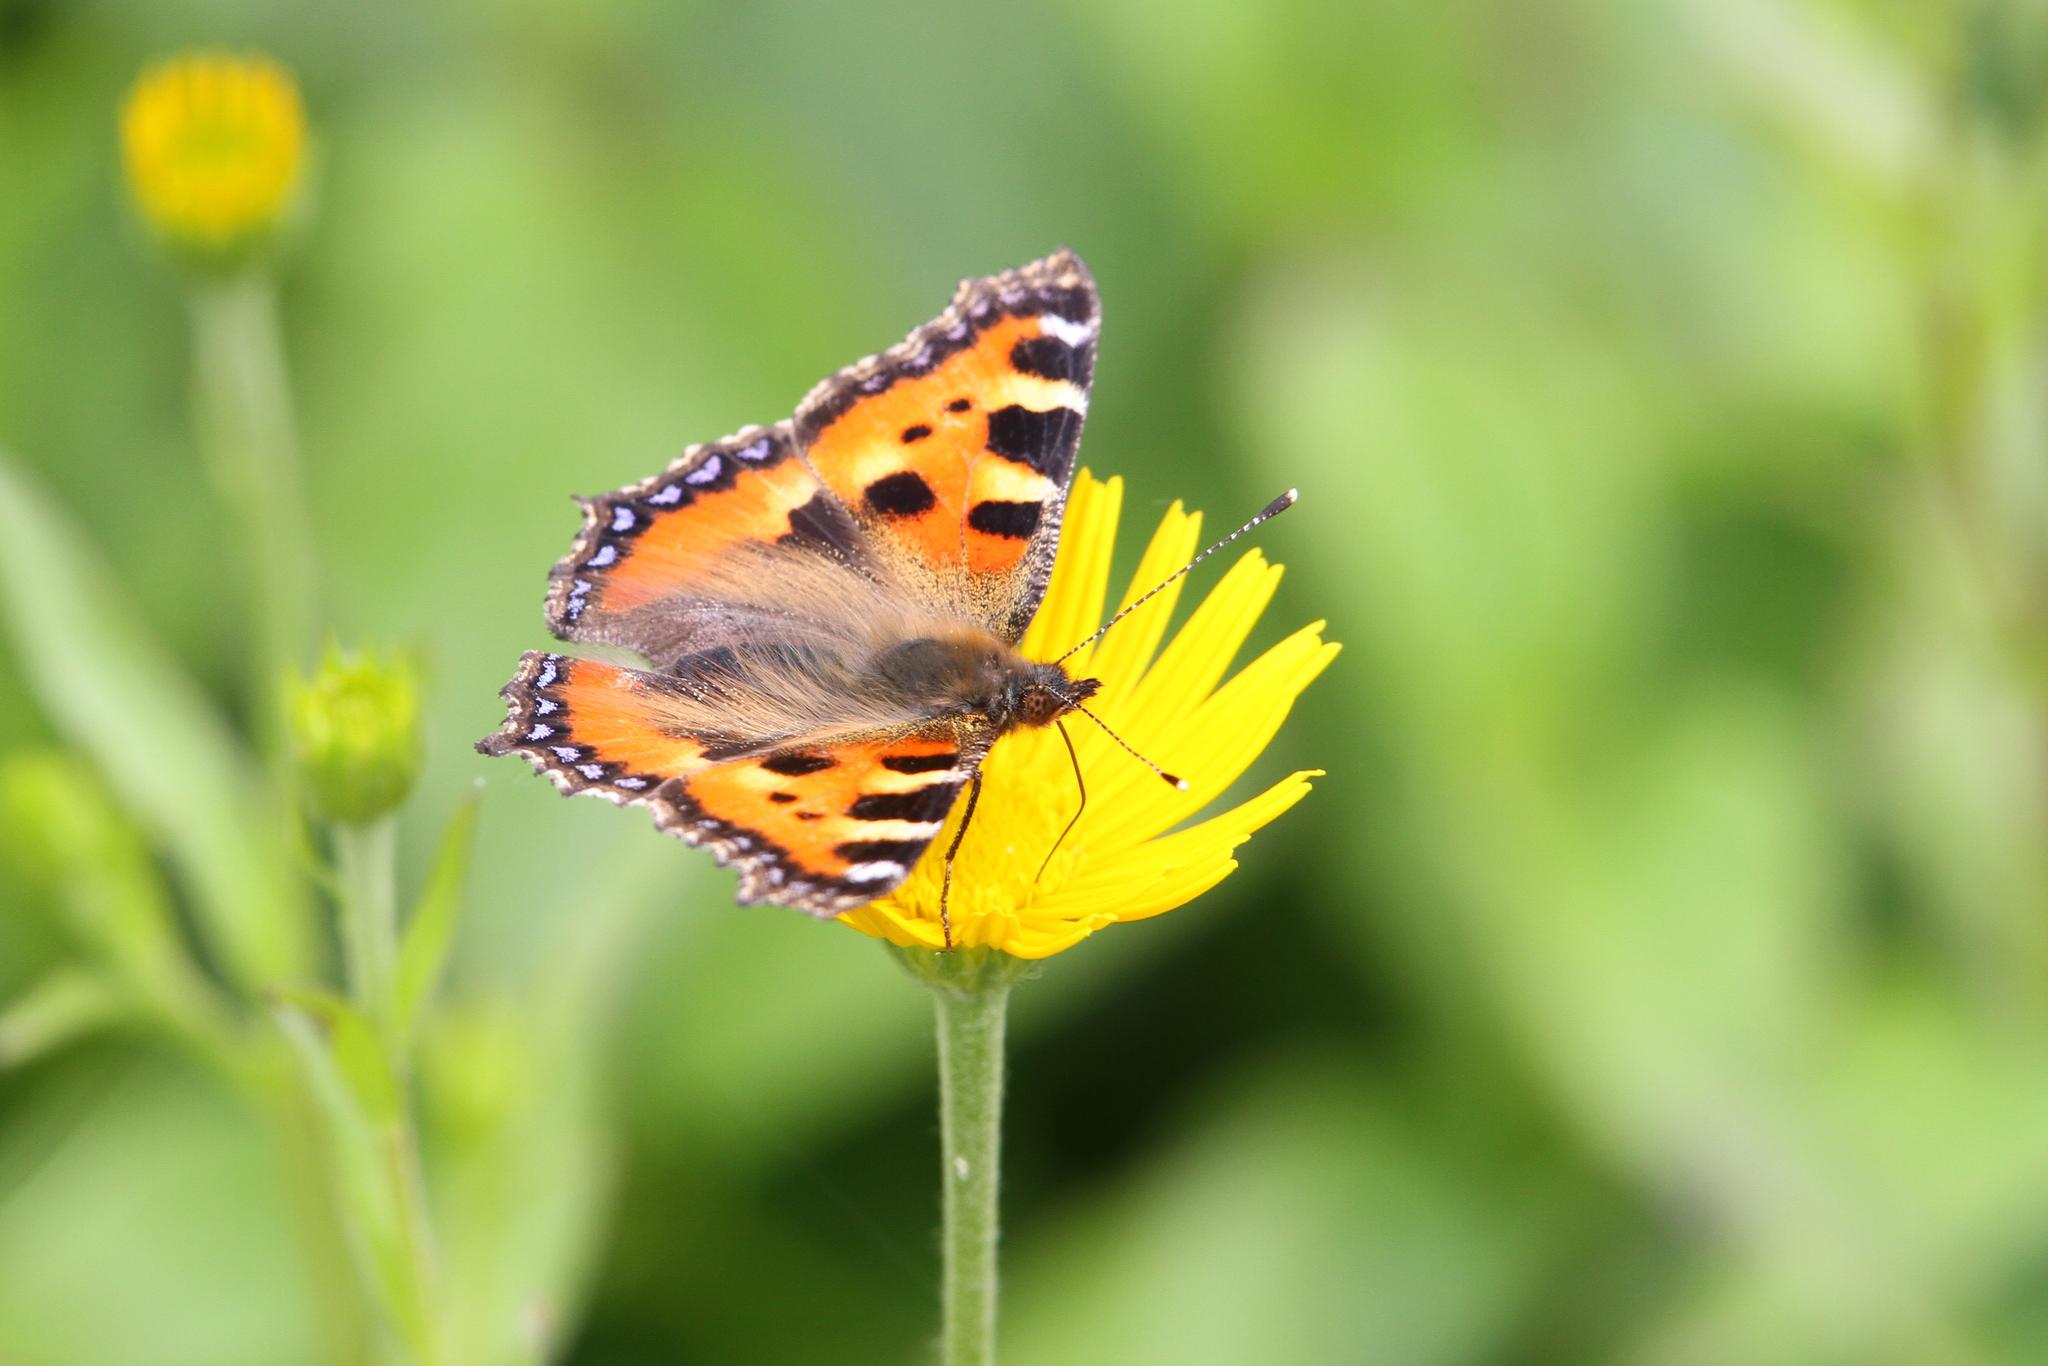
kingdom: Animalia
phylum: Arthropoda
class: Insecta
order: Lepidoptera
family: Nymphalidae
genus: Aglais
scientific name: Aglais urticae
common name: Small tortoiseshell
